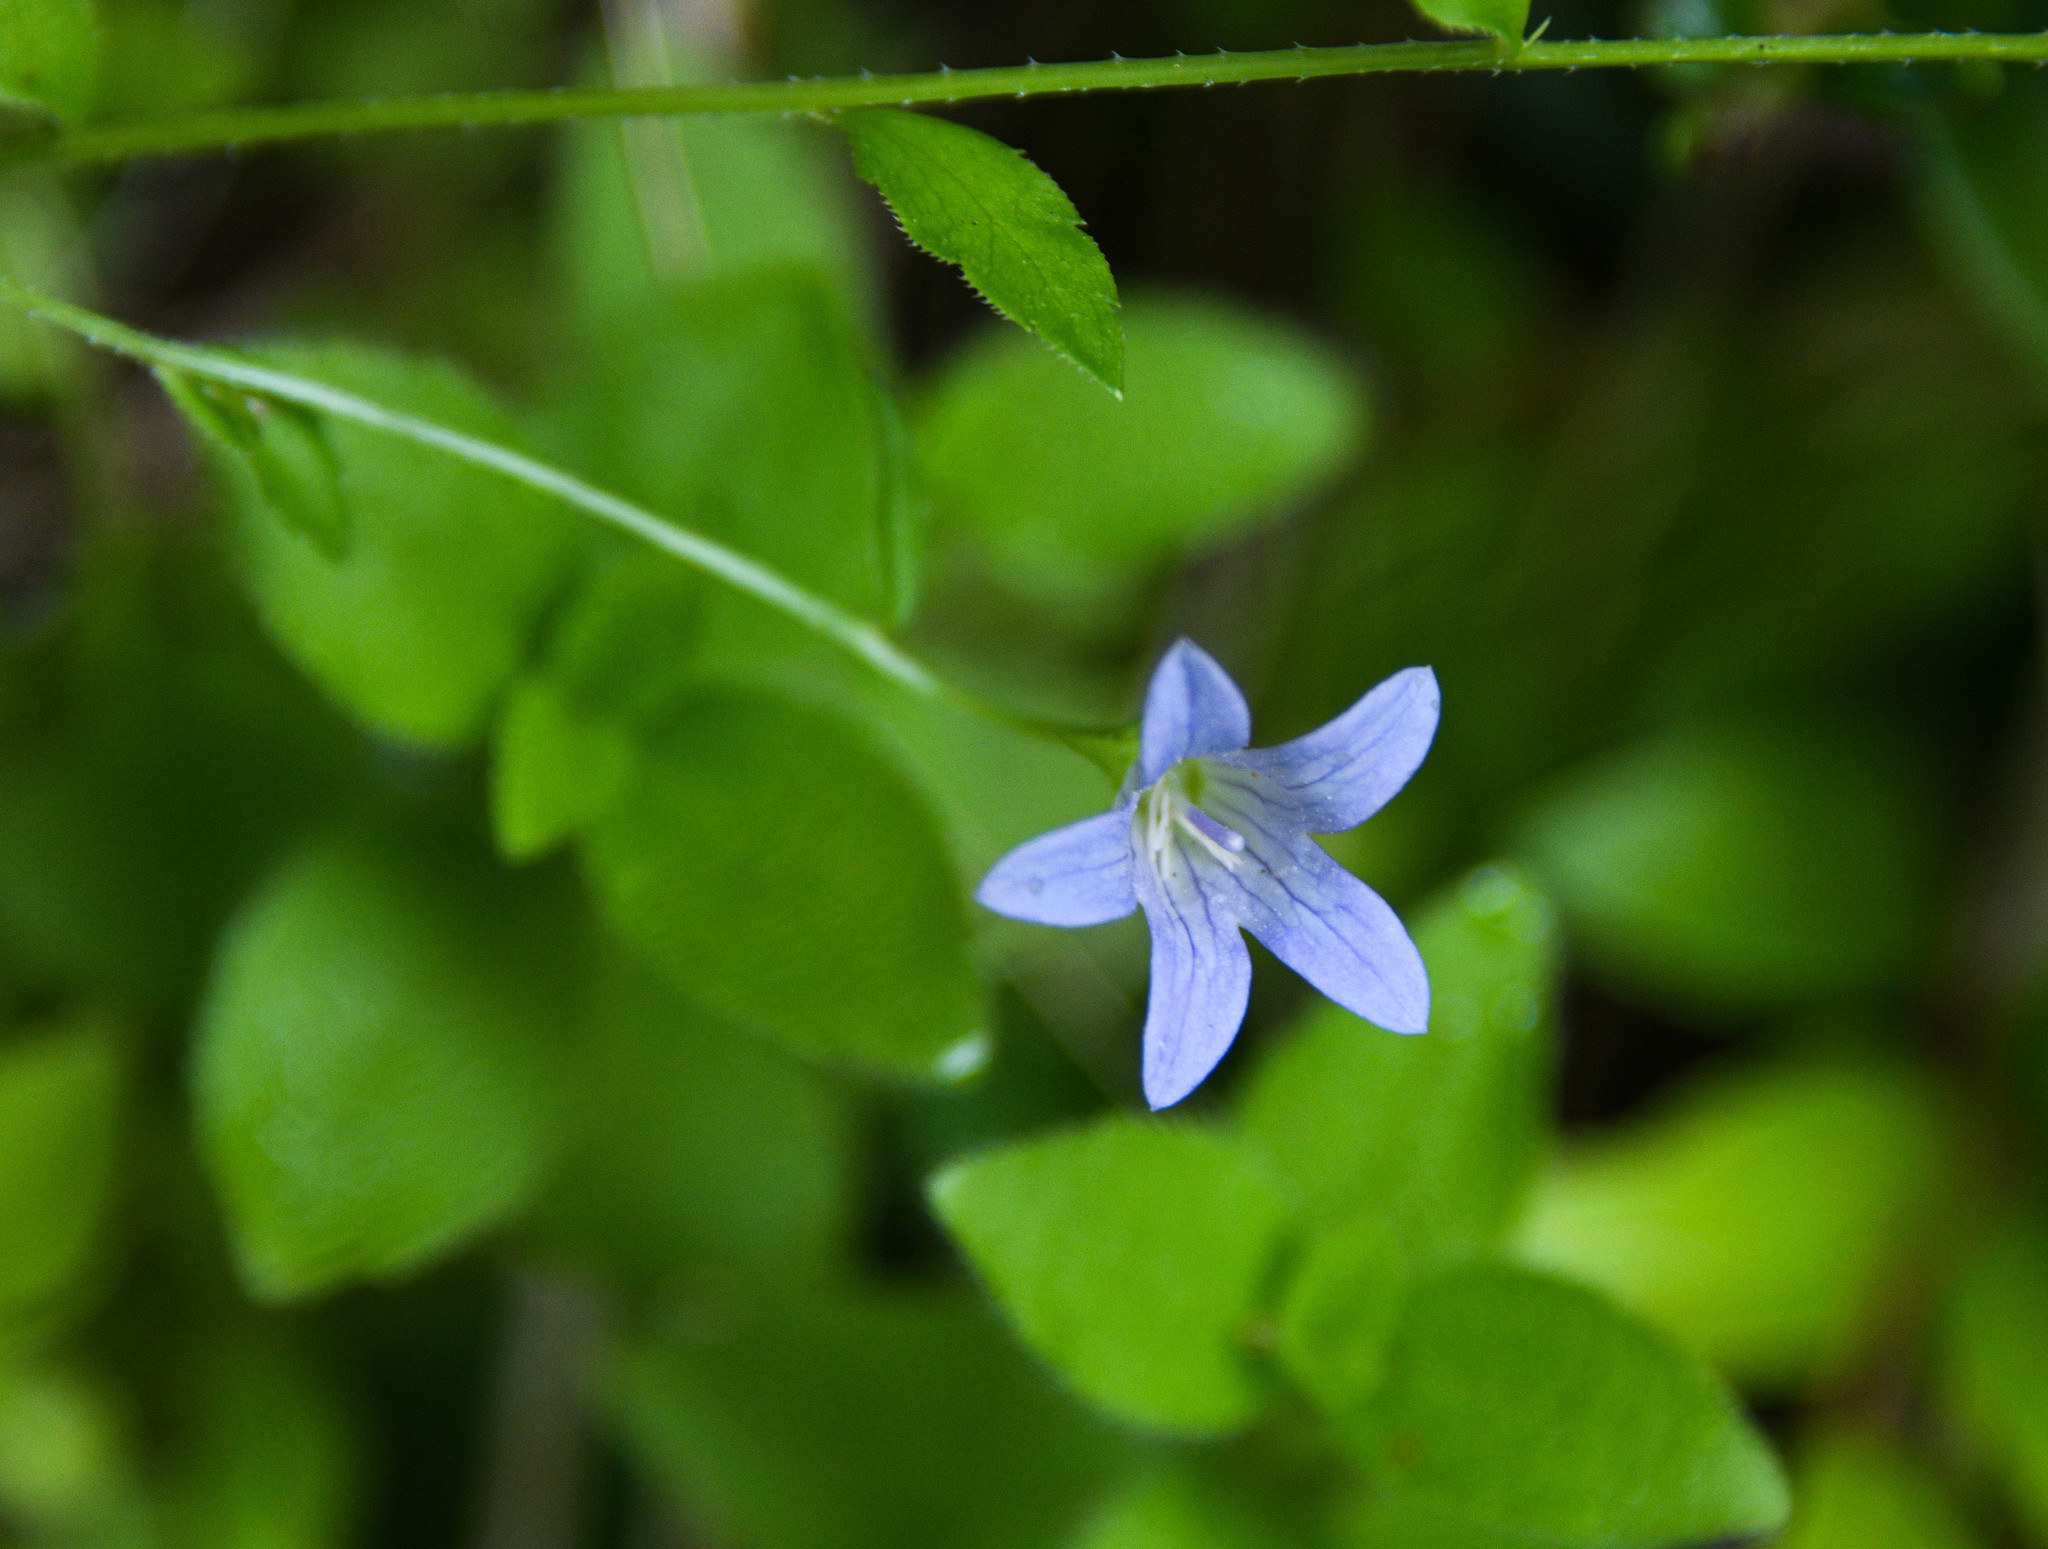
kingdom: Plantae
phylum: Tracheophyta
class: Magnoliopsida
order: Asterales
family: Campanulaceae
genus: Eastwoodiella
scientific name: Eastwoodiella californica
